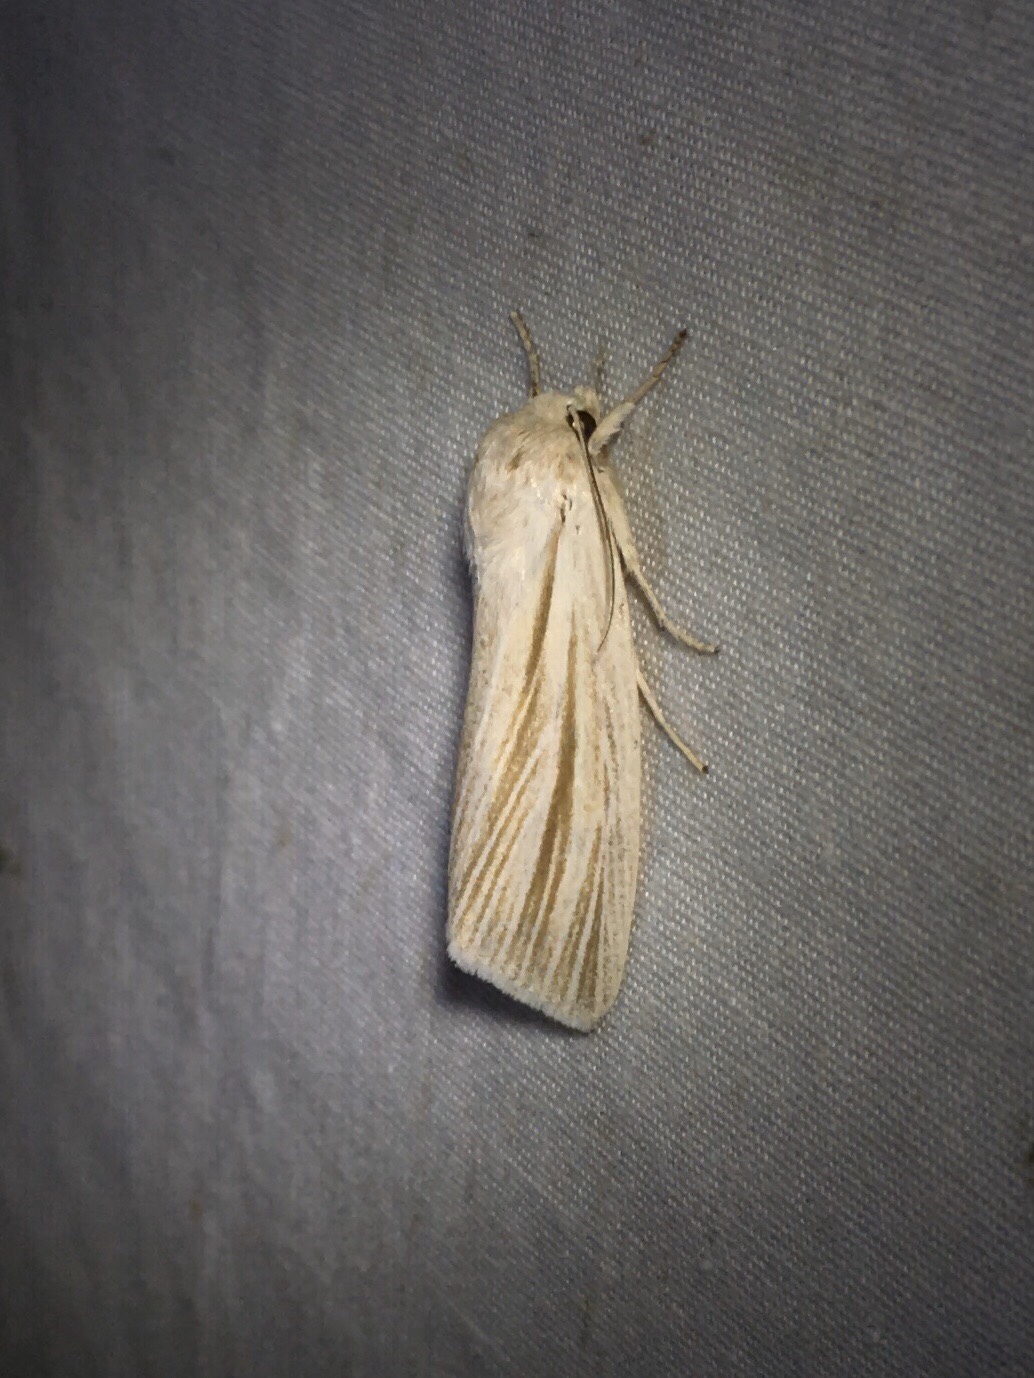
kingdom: Animalia
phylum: Arthropoda
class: Insecta
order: Lepidoptera
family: Noctuidae
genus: Acronicta
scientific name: Acronicta insularis
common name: Henry's marsh moth
